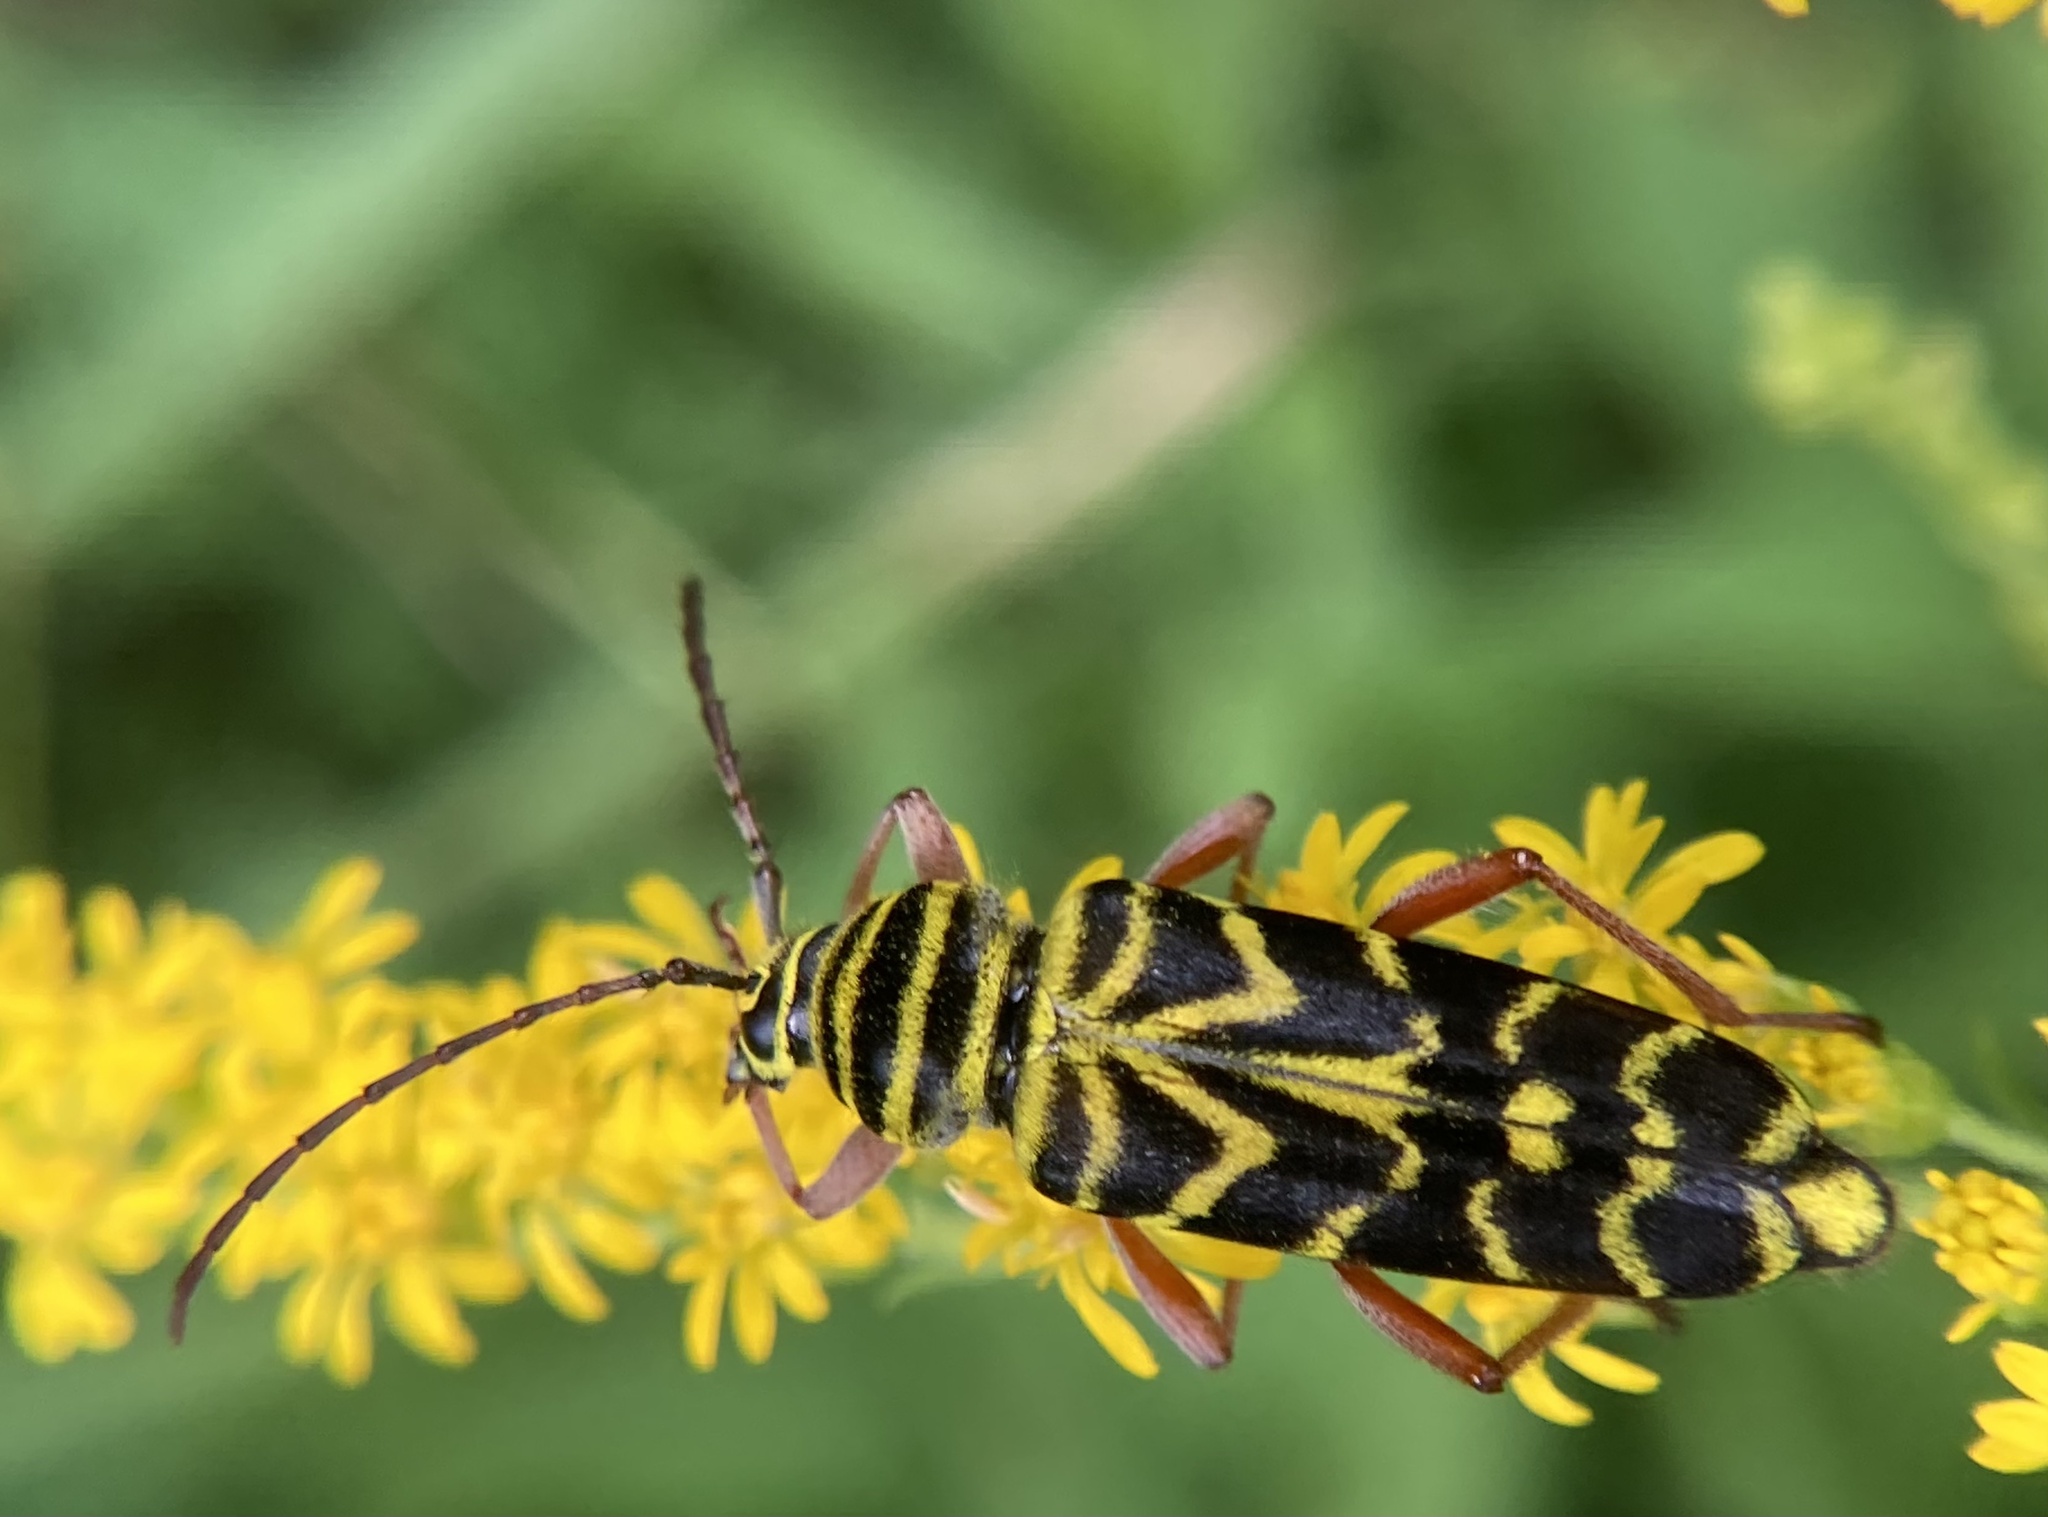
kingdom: Animalia
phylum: Arthropoda
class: Insecta
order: Coleoptera
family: Cerambycidae
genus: Megacyllene
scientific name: Megacyllene robiniae
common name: Locust borer
